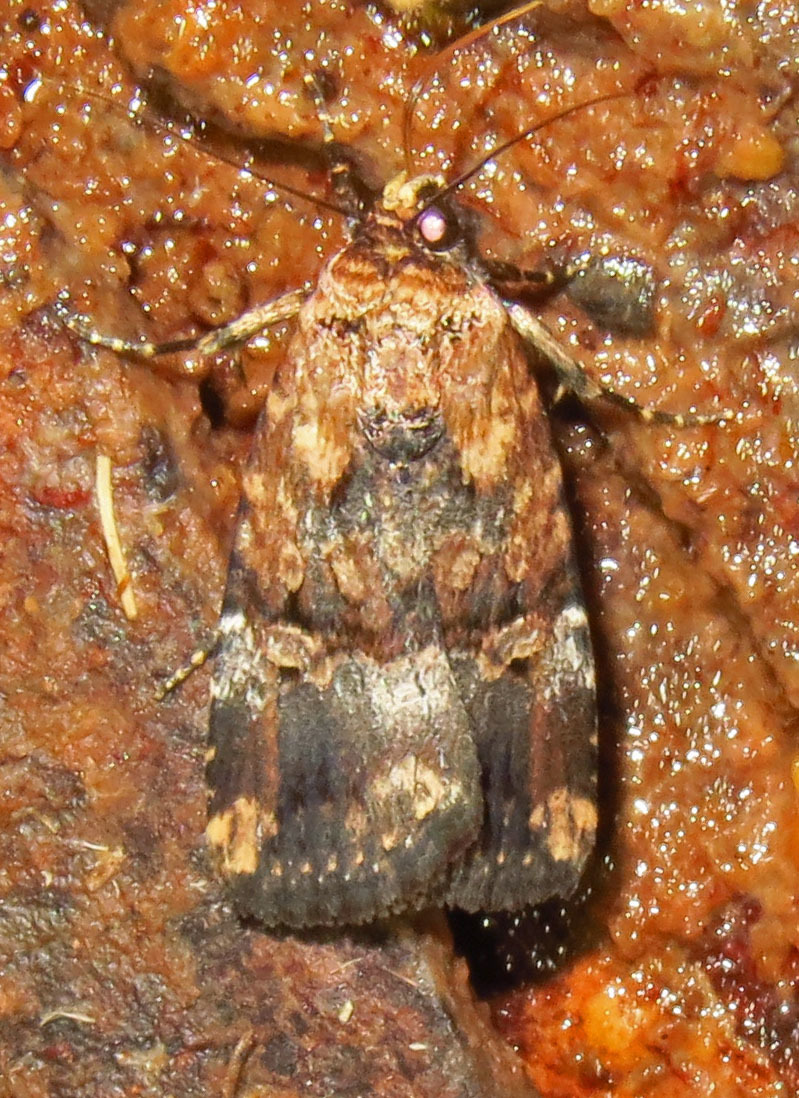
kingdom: Animalia
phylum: Arthropoda
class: Insecta
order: Lepidoptera
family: Noctuidae
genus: Elaphria
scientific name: Elaphria chalcedonia
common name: Chalcedony midget
